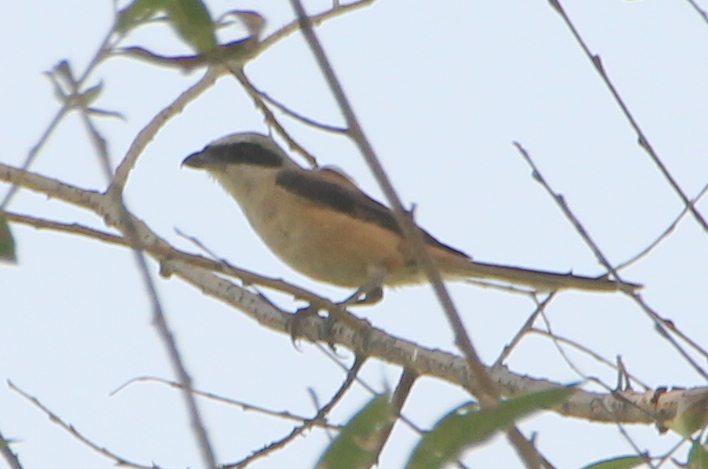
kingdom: Animalia
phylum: Chordata
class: Aves
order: Passeriformes
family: Laniidae
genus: Lanius
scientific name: Lanius schach
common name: Long-tailed shrike
